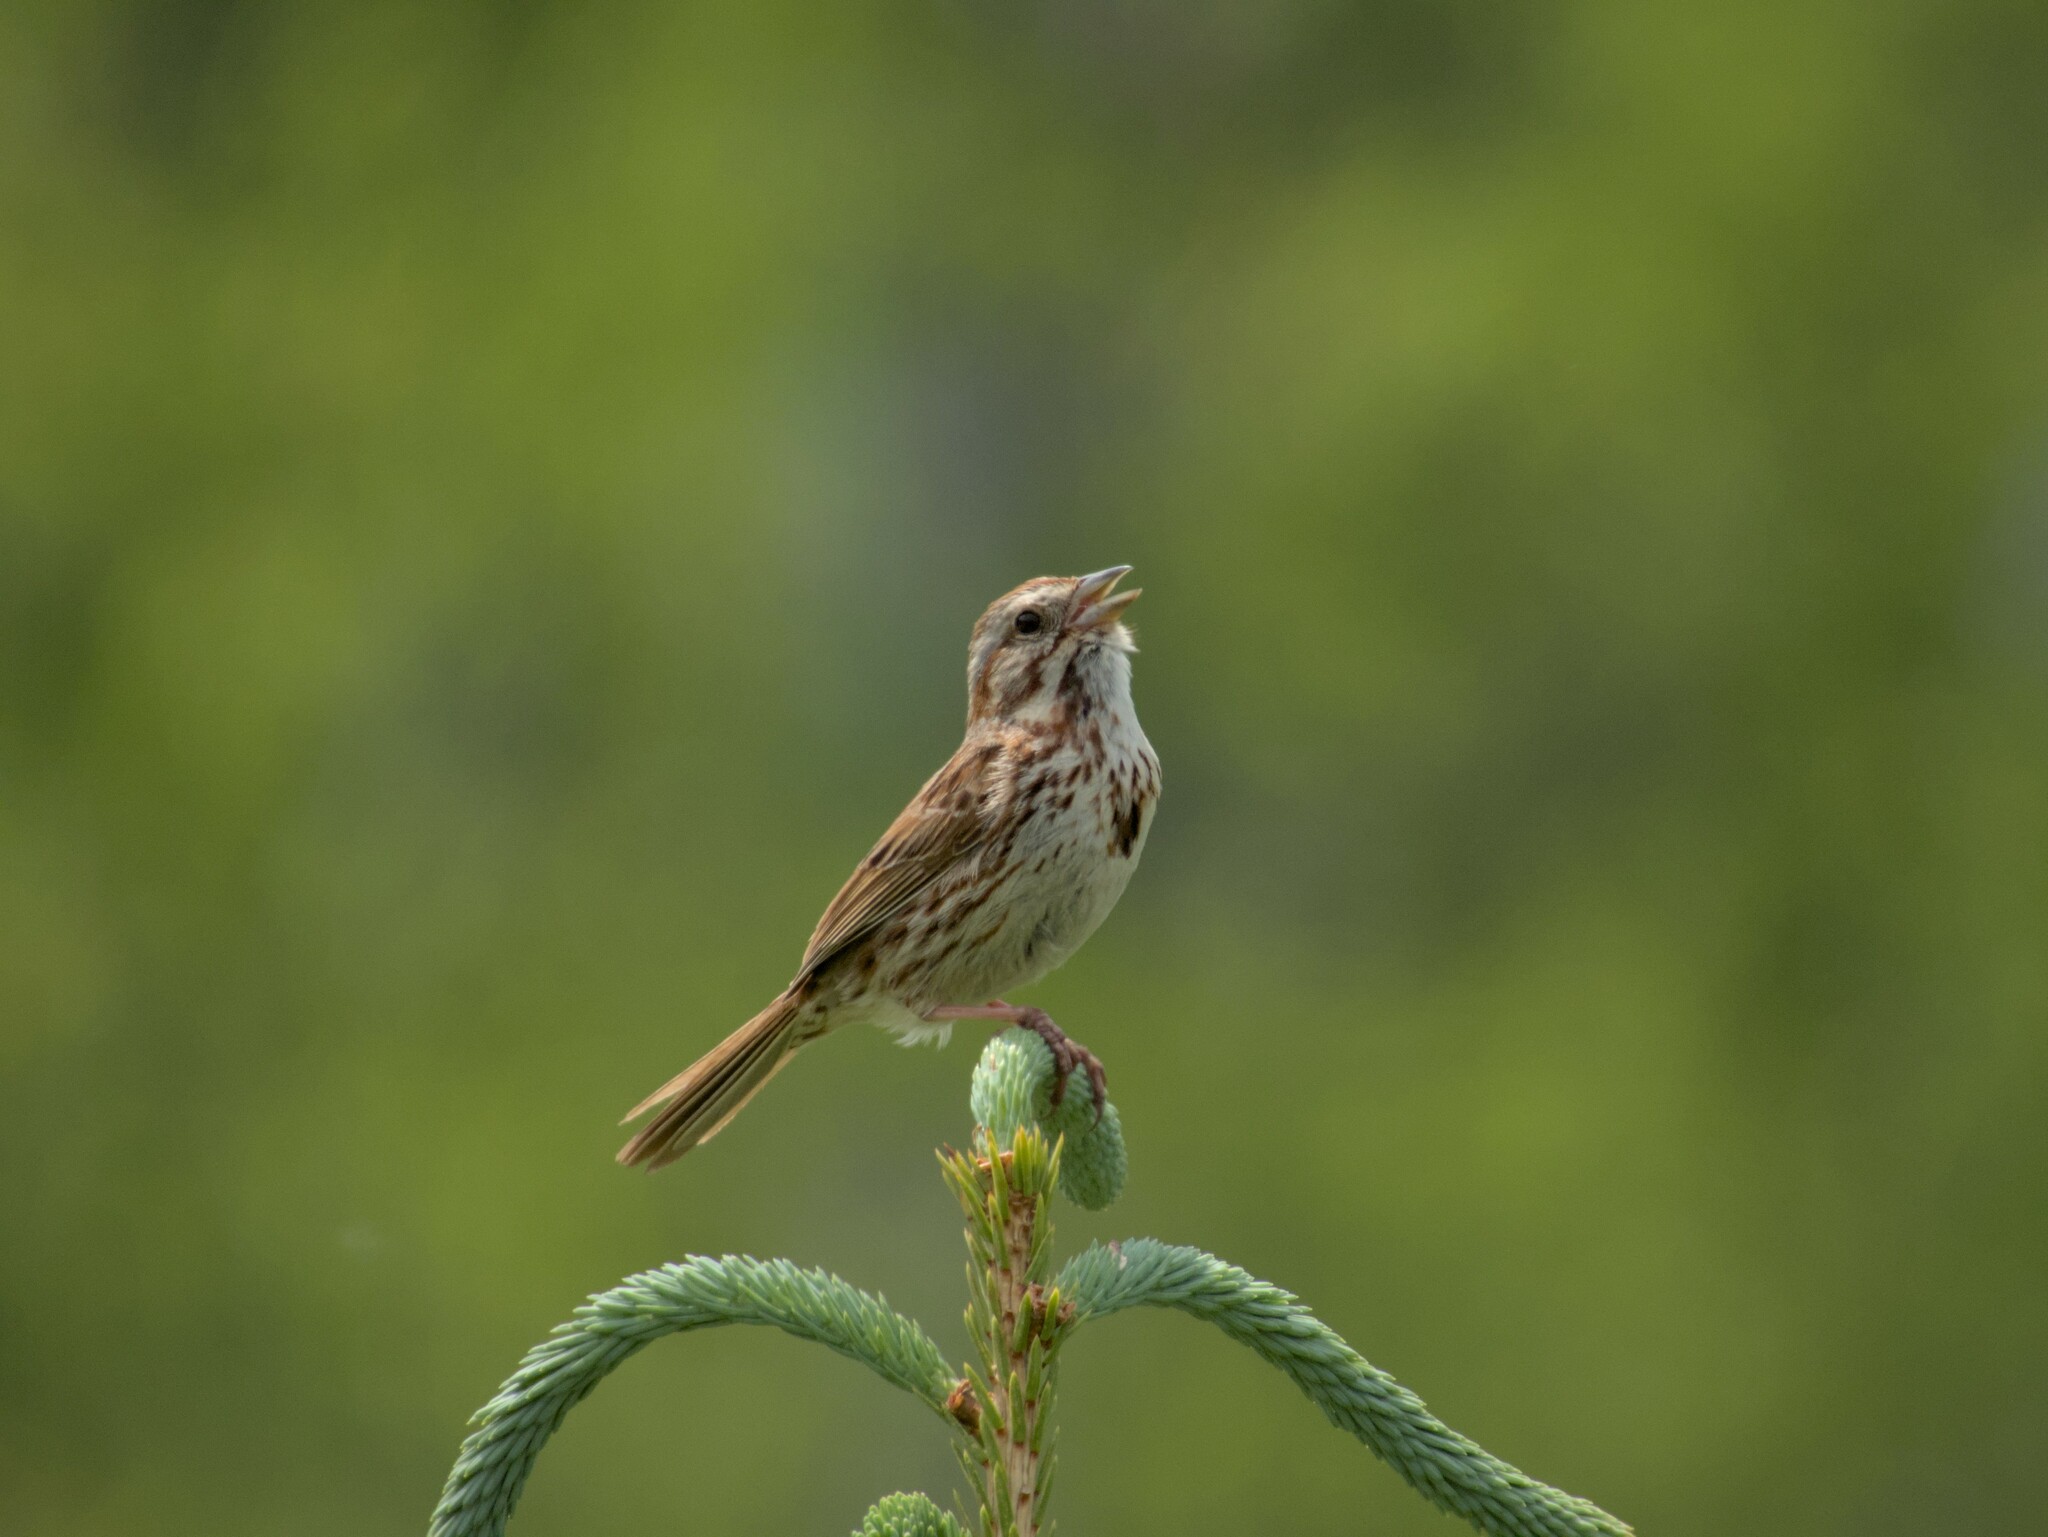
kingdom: Animalia
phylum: Chordata
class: Aves
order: Passeriformes
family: Passerellidae
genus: Melospiza
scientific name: Melospiza melodia
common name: Song sparrow
